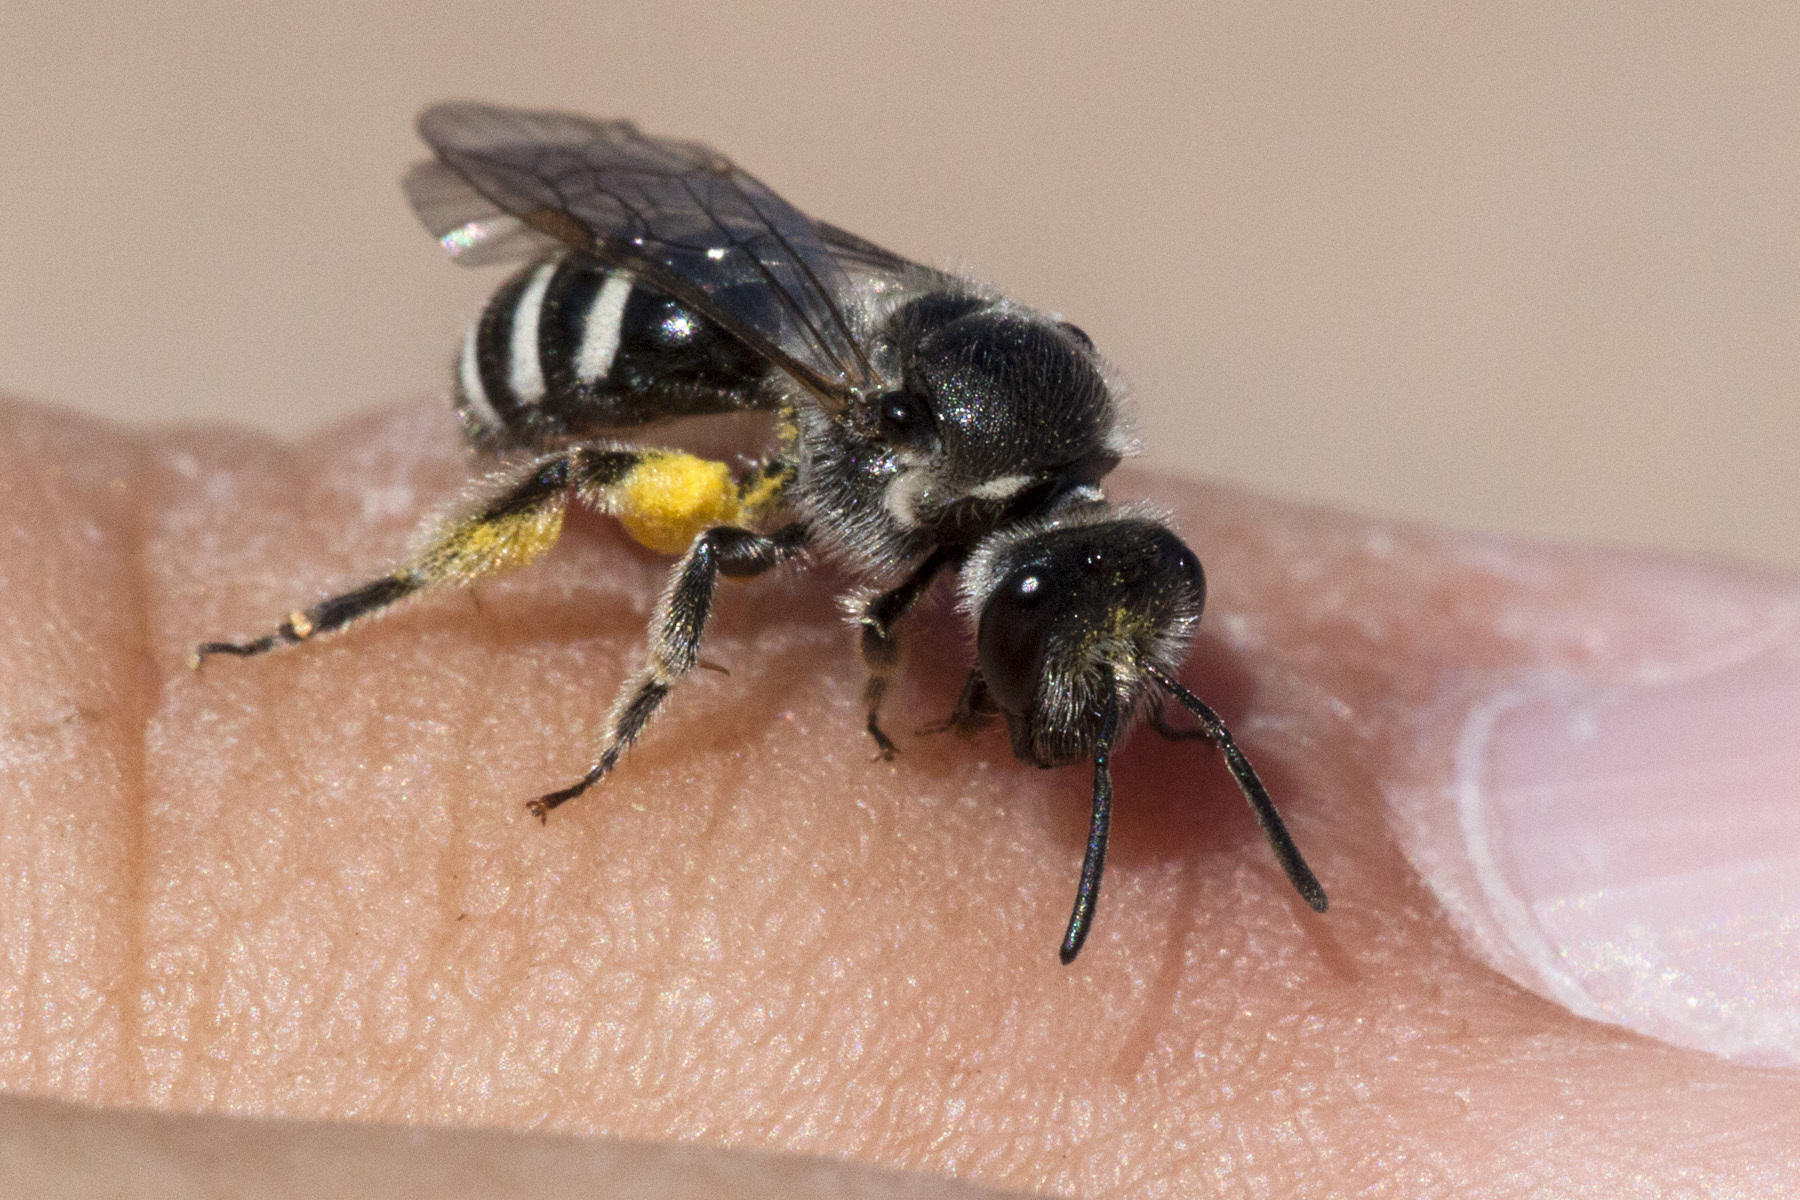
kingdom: Animalia
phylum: Arthropoda
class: Insecta
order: Hymenoptera
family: Halictidae
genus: Lasioglossum
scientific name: Lasioglossum
